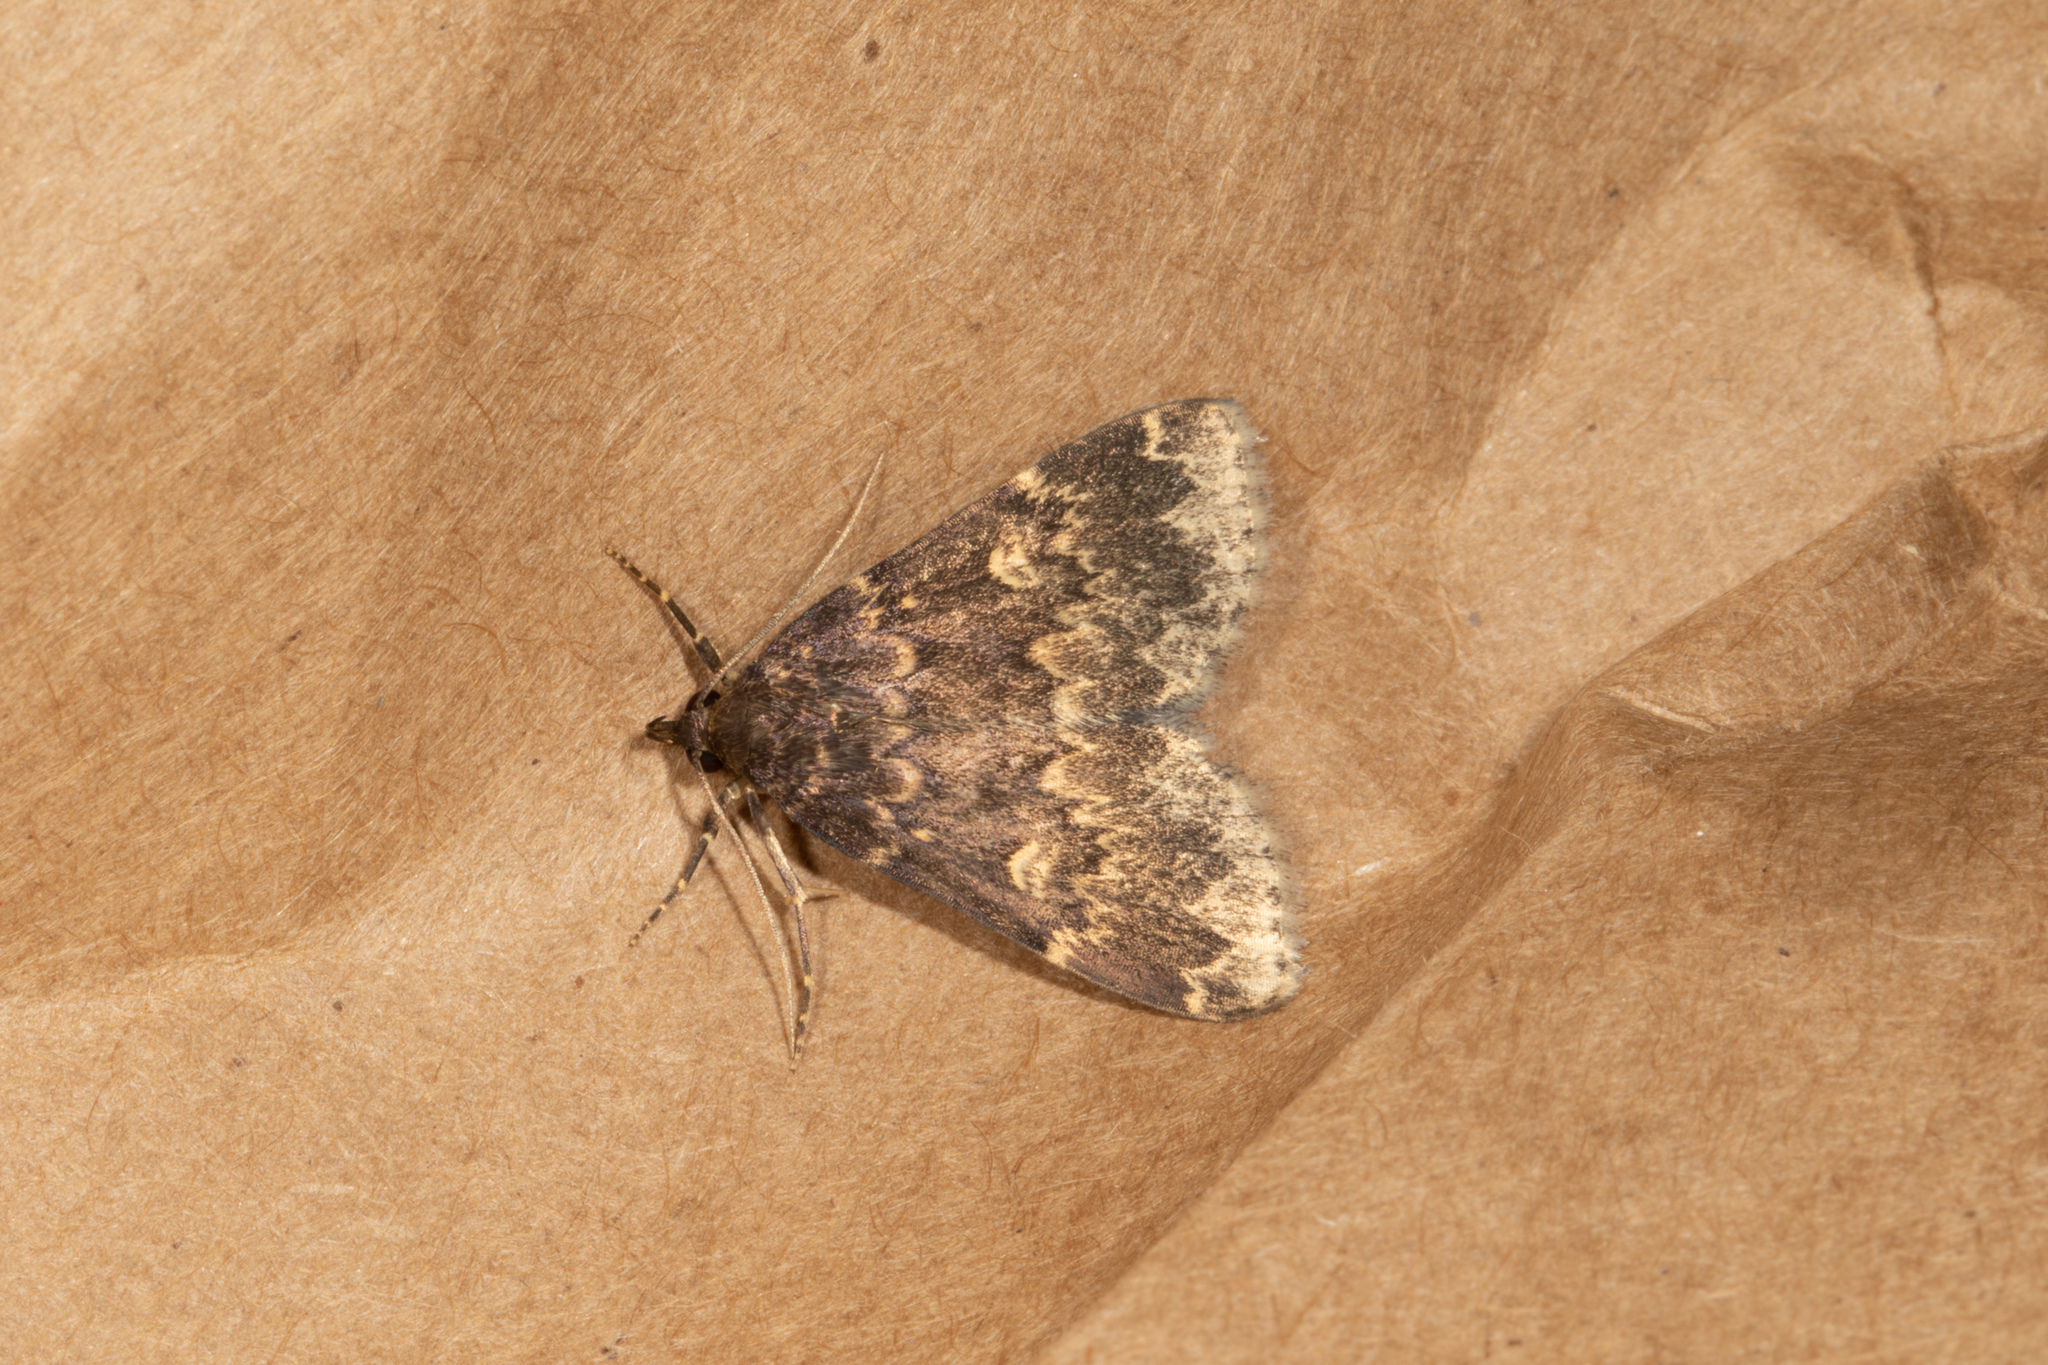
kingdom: Animalia
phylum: Arthropoda
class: Insecta
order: Lepidoptera
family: Erebidae
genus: Idia
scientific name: Idia lubricalis
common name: Twin-striped tabby
